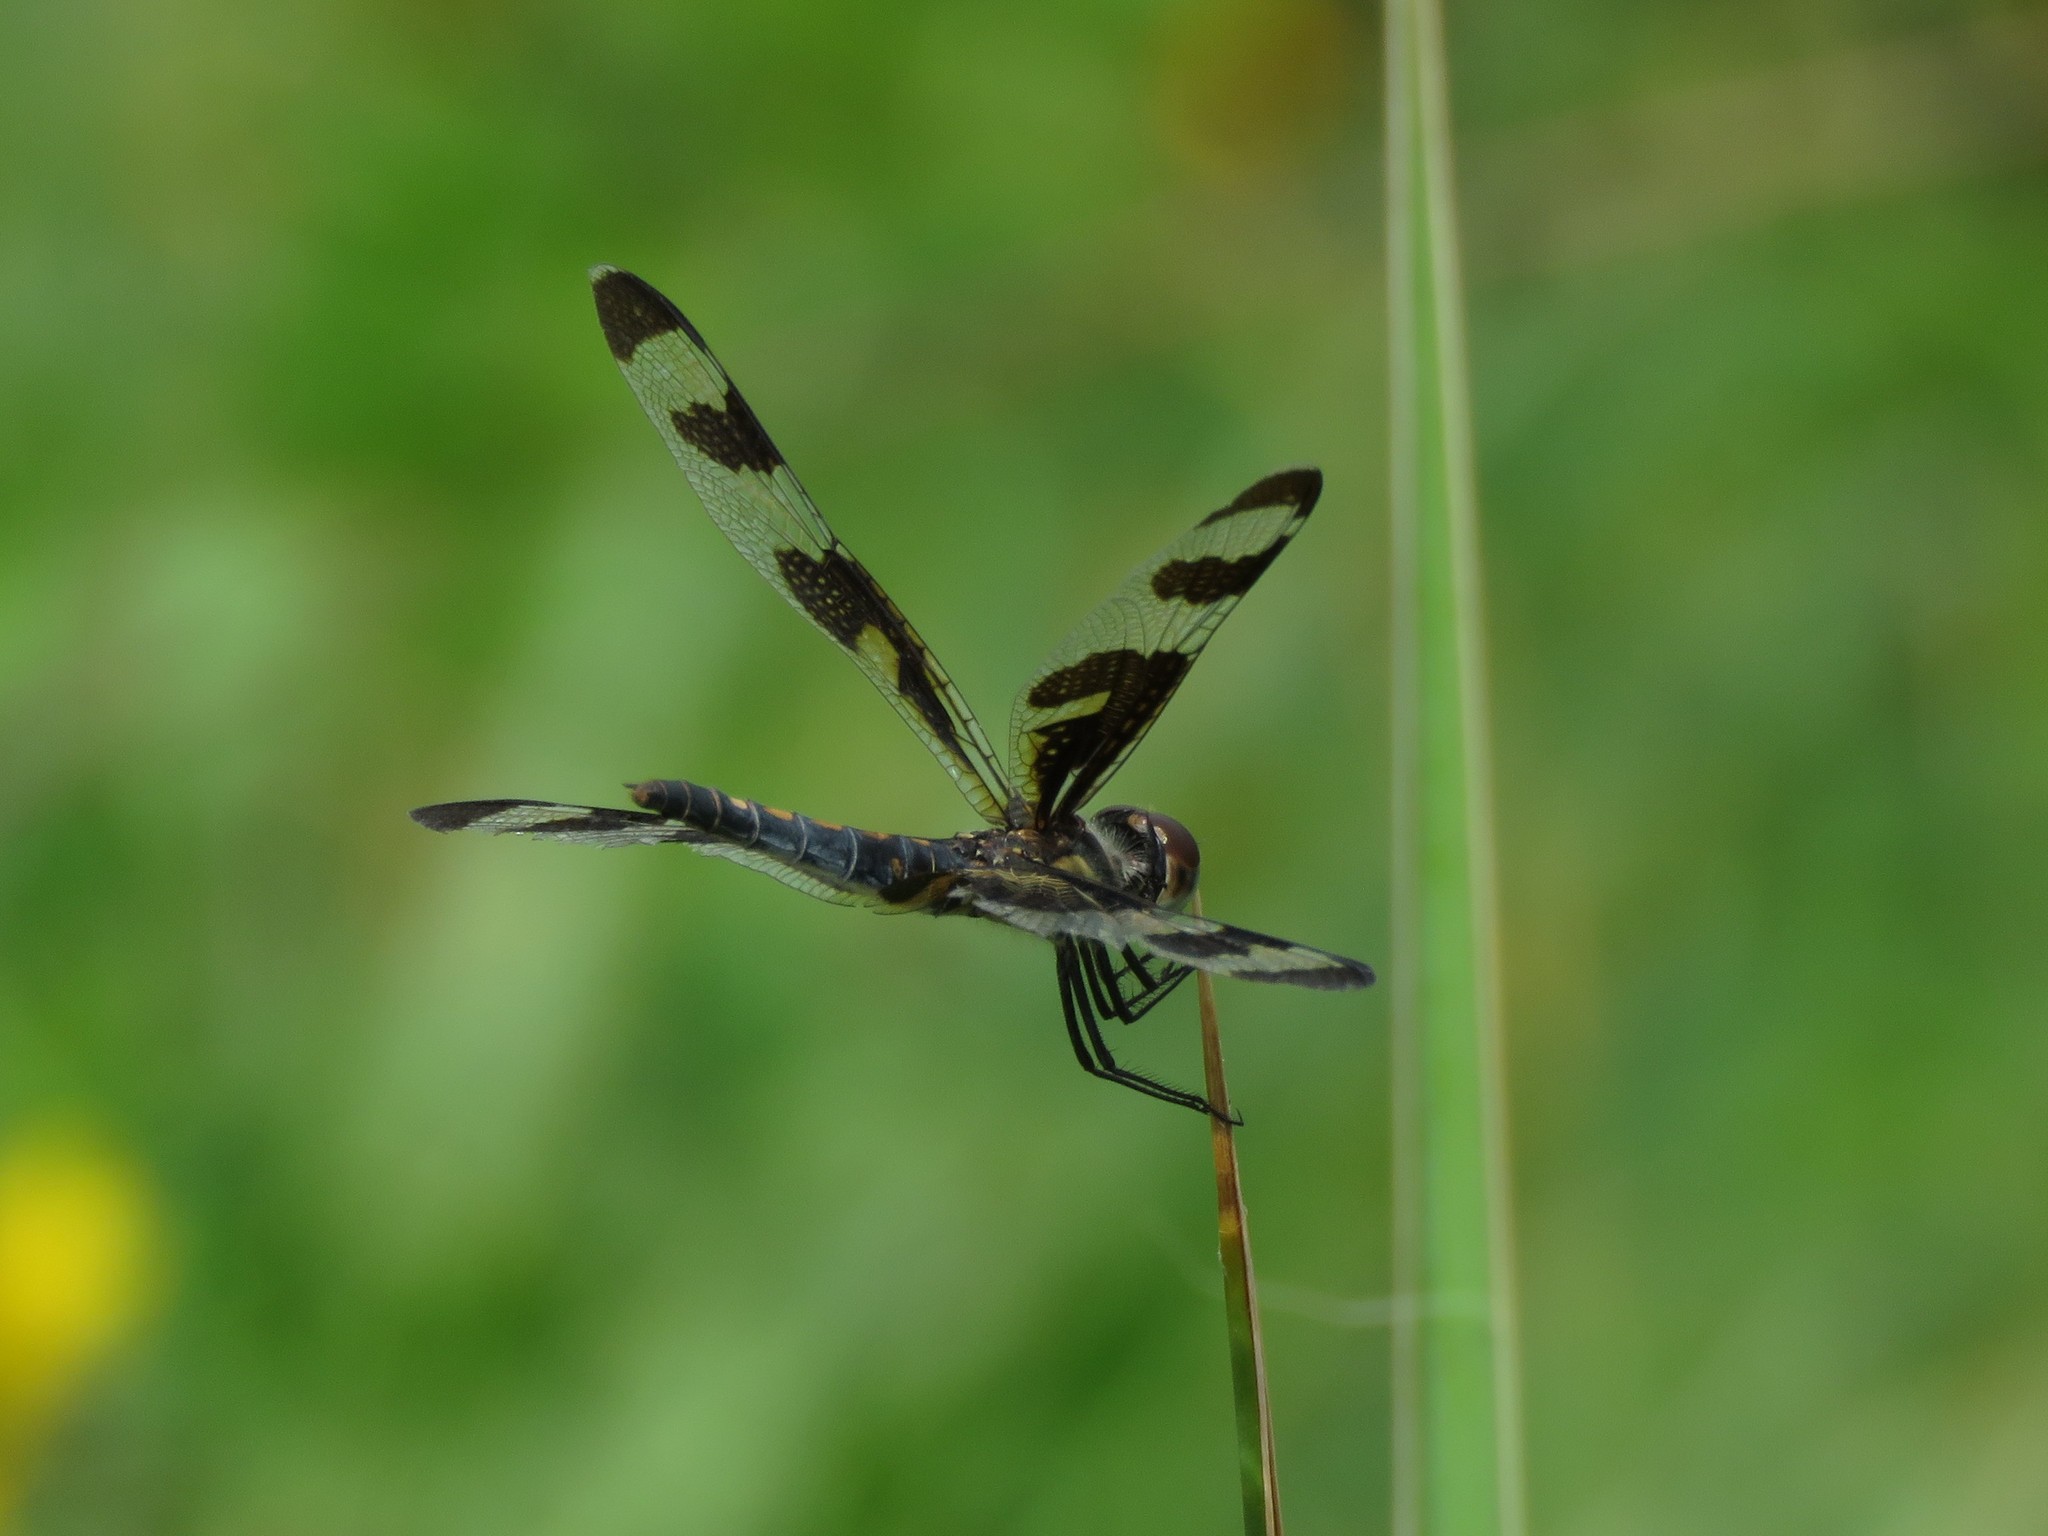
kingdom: Animalia
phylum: Arthropoda
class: Insecta
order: Odonata
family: Libellulidae
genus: Celithemis
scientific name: Celithemis fasciata
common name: Banded pennant
